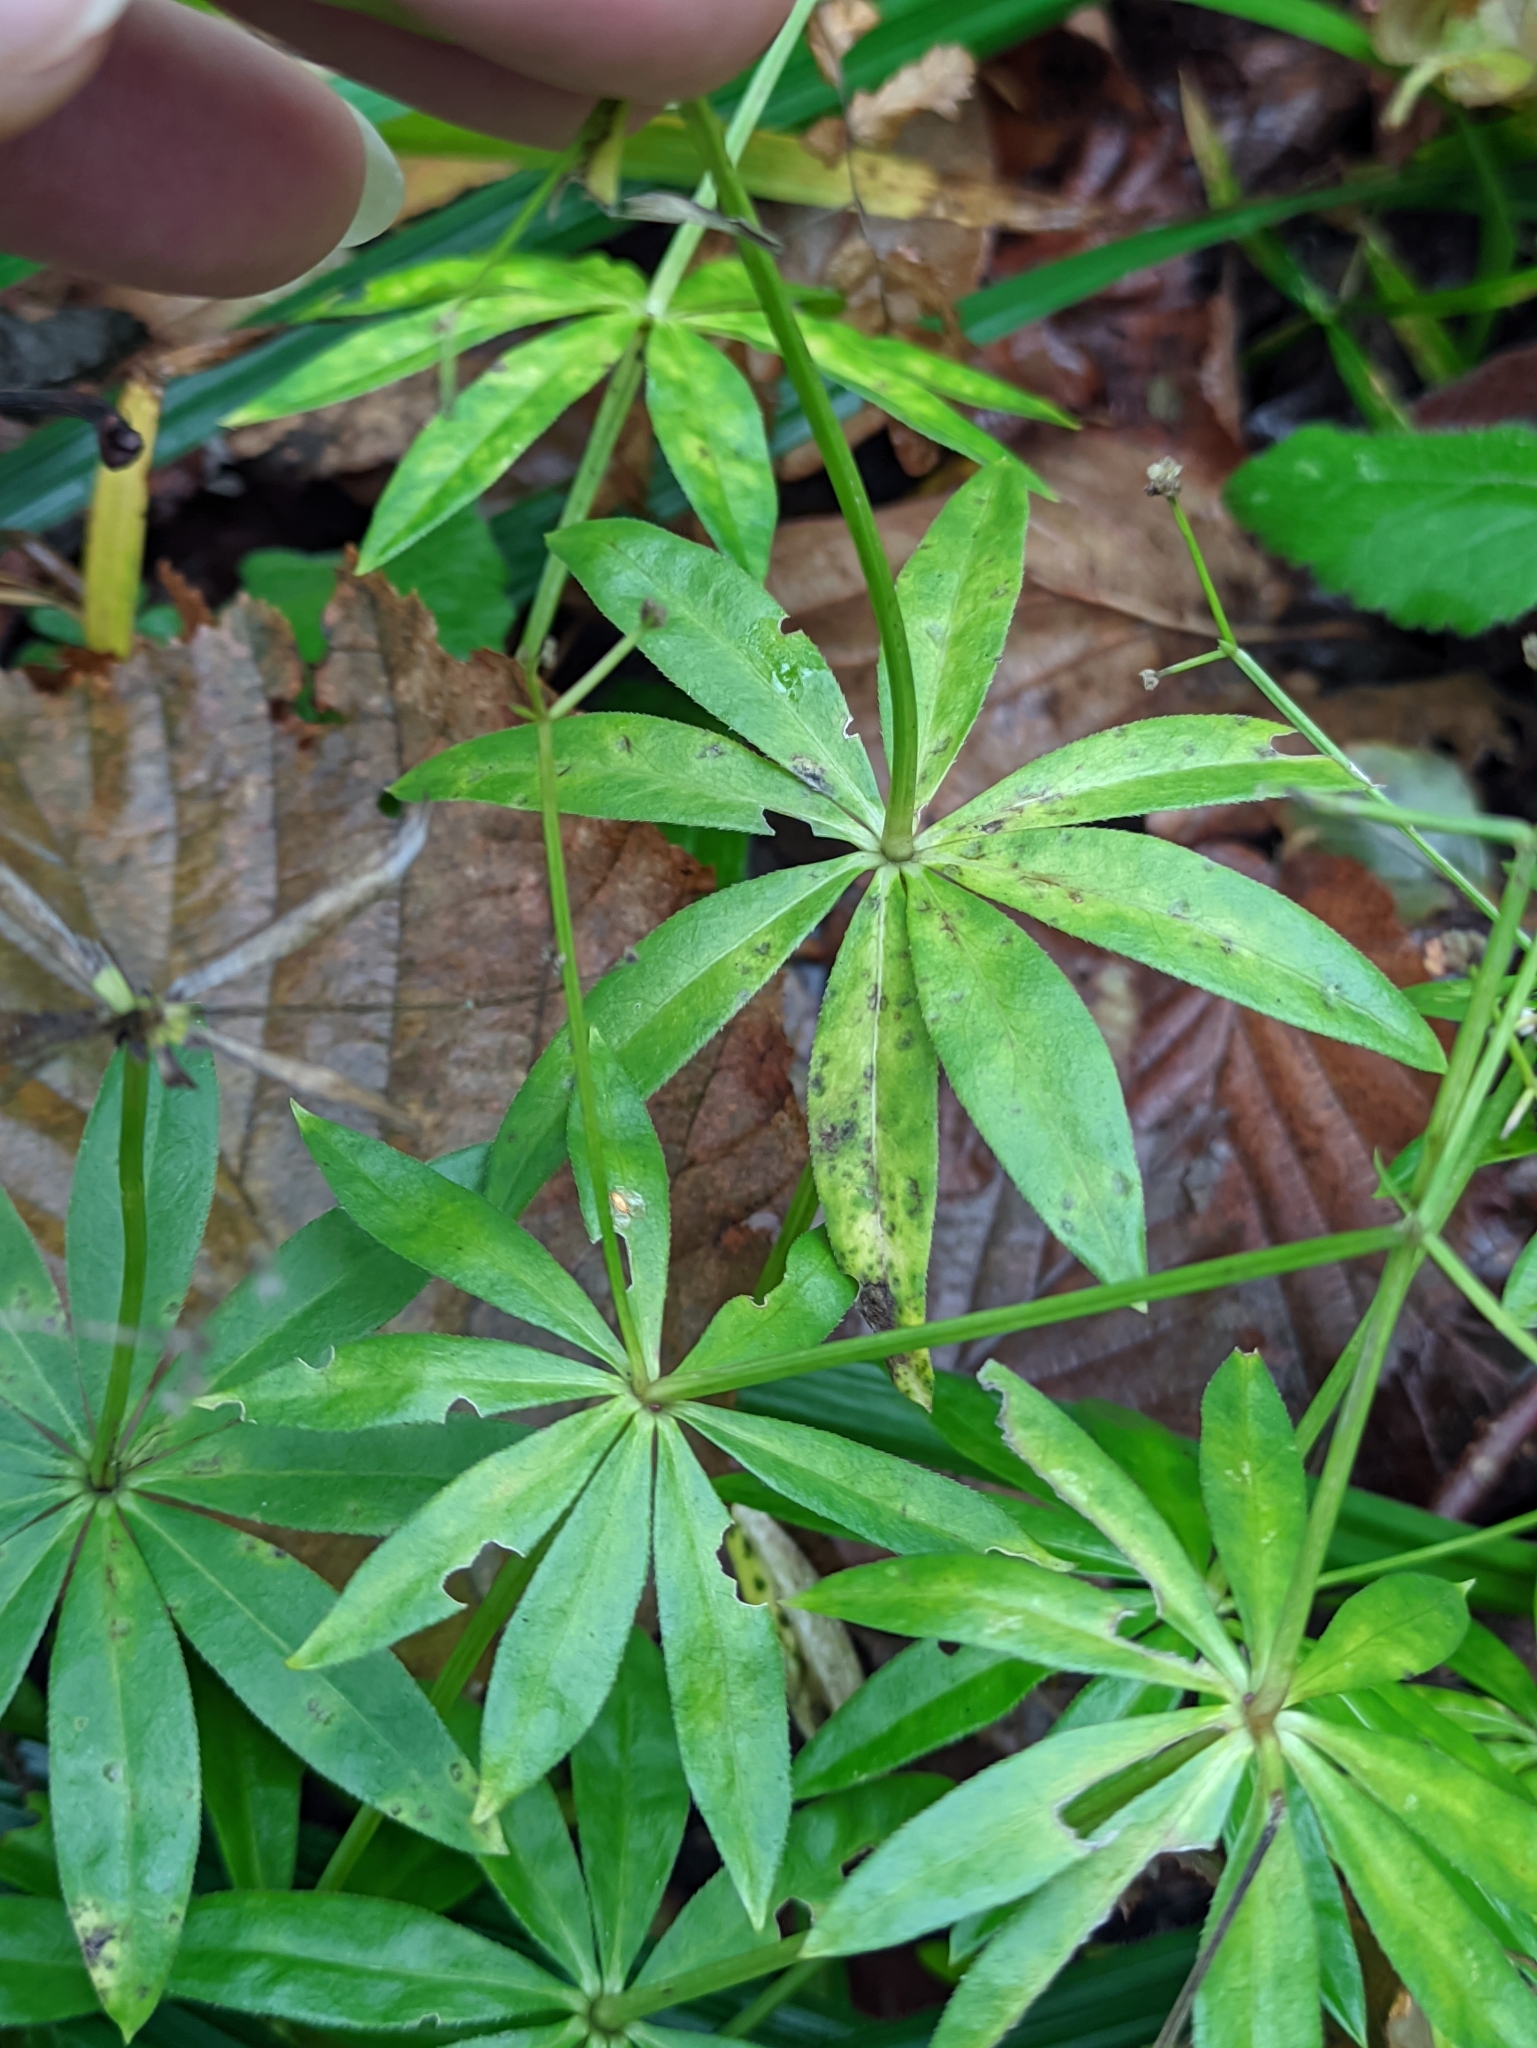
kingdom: Plantae
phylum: Tracheophyta
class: Magnoliopsida
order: Gentianales
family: Rubiaceae
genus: Galium
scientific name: Galium odoratum
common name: Sweet woodruff
